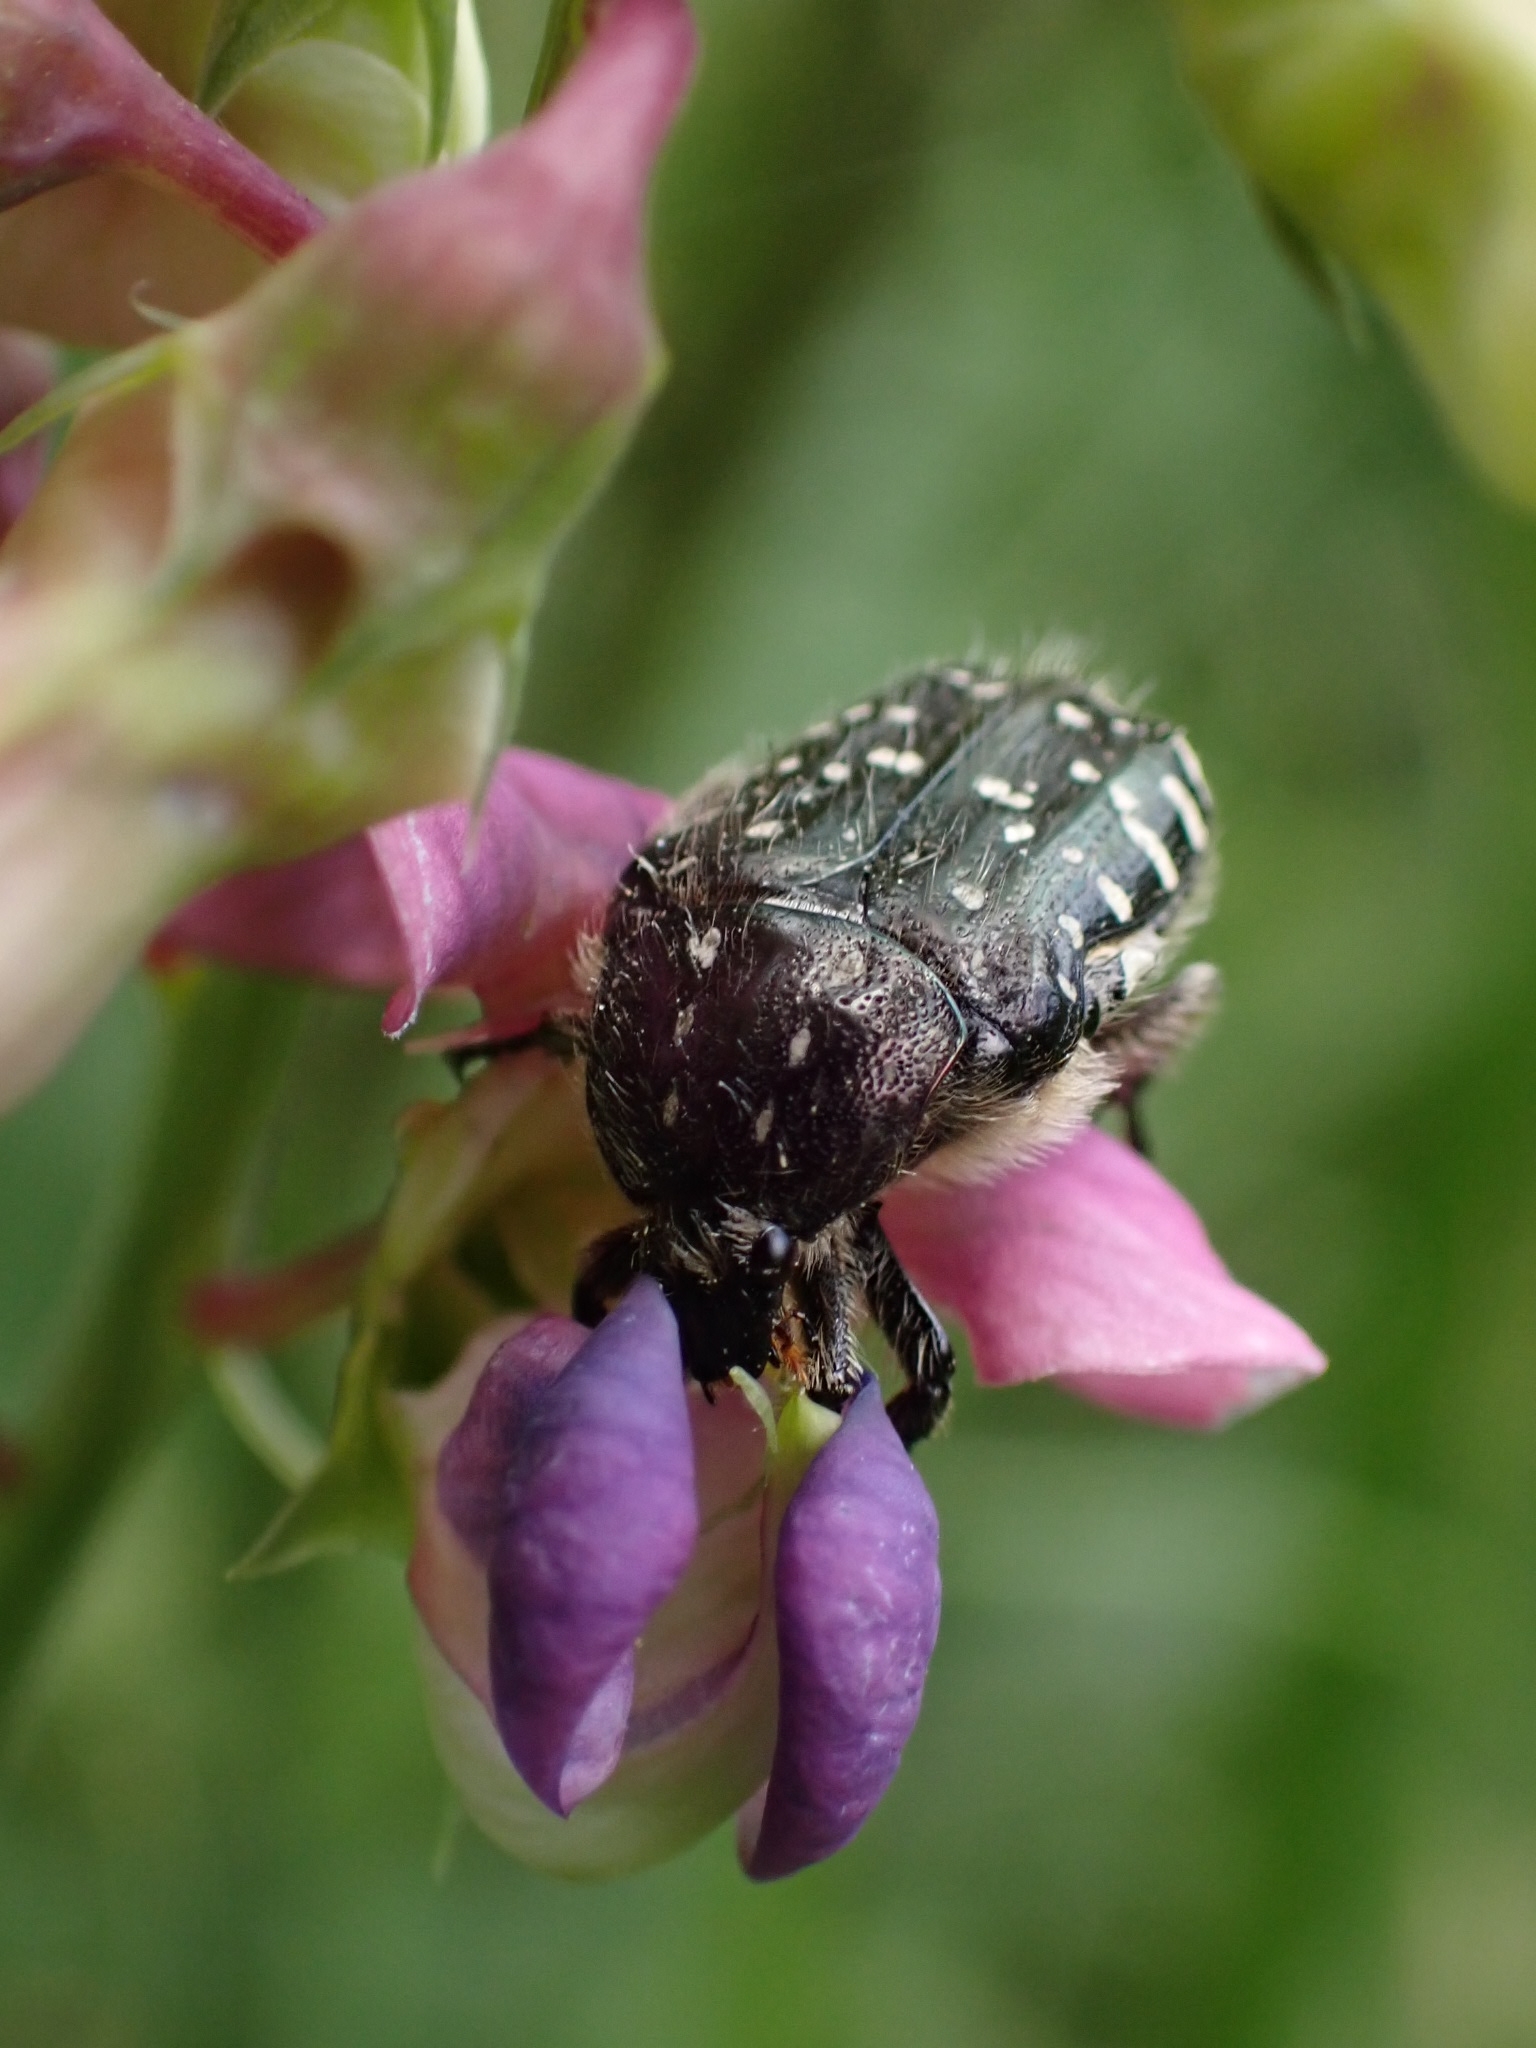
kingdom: Animalia
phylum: Arthropoda
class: Insecta
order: Coleoptera
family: Scarabaeidae
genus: Oxythyrea
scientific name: Oxythyrea funesta
